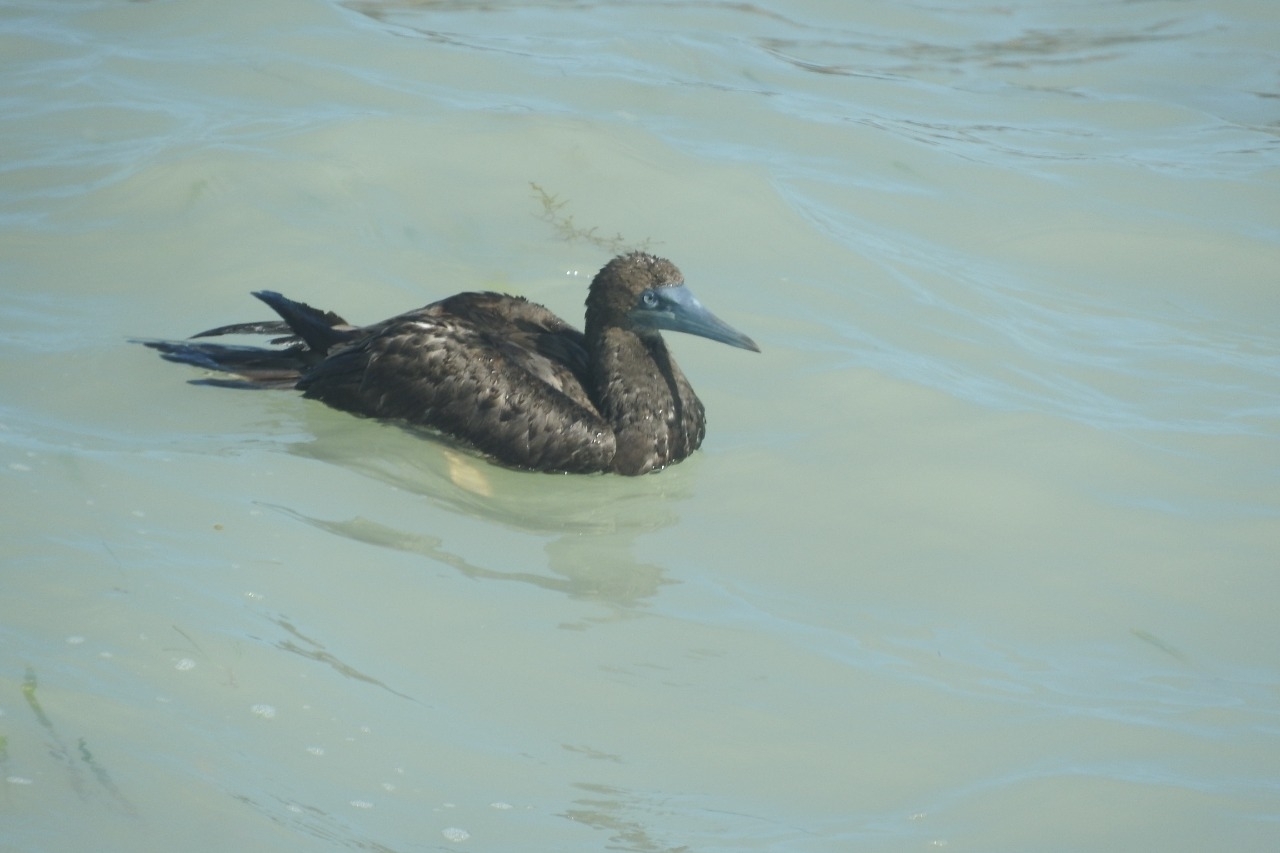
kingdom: Animalia
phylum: Chordata
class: Aves
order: Suliformes
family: Sulidae
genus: Sula
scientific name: Sula leucogaster
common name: Brown booby
